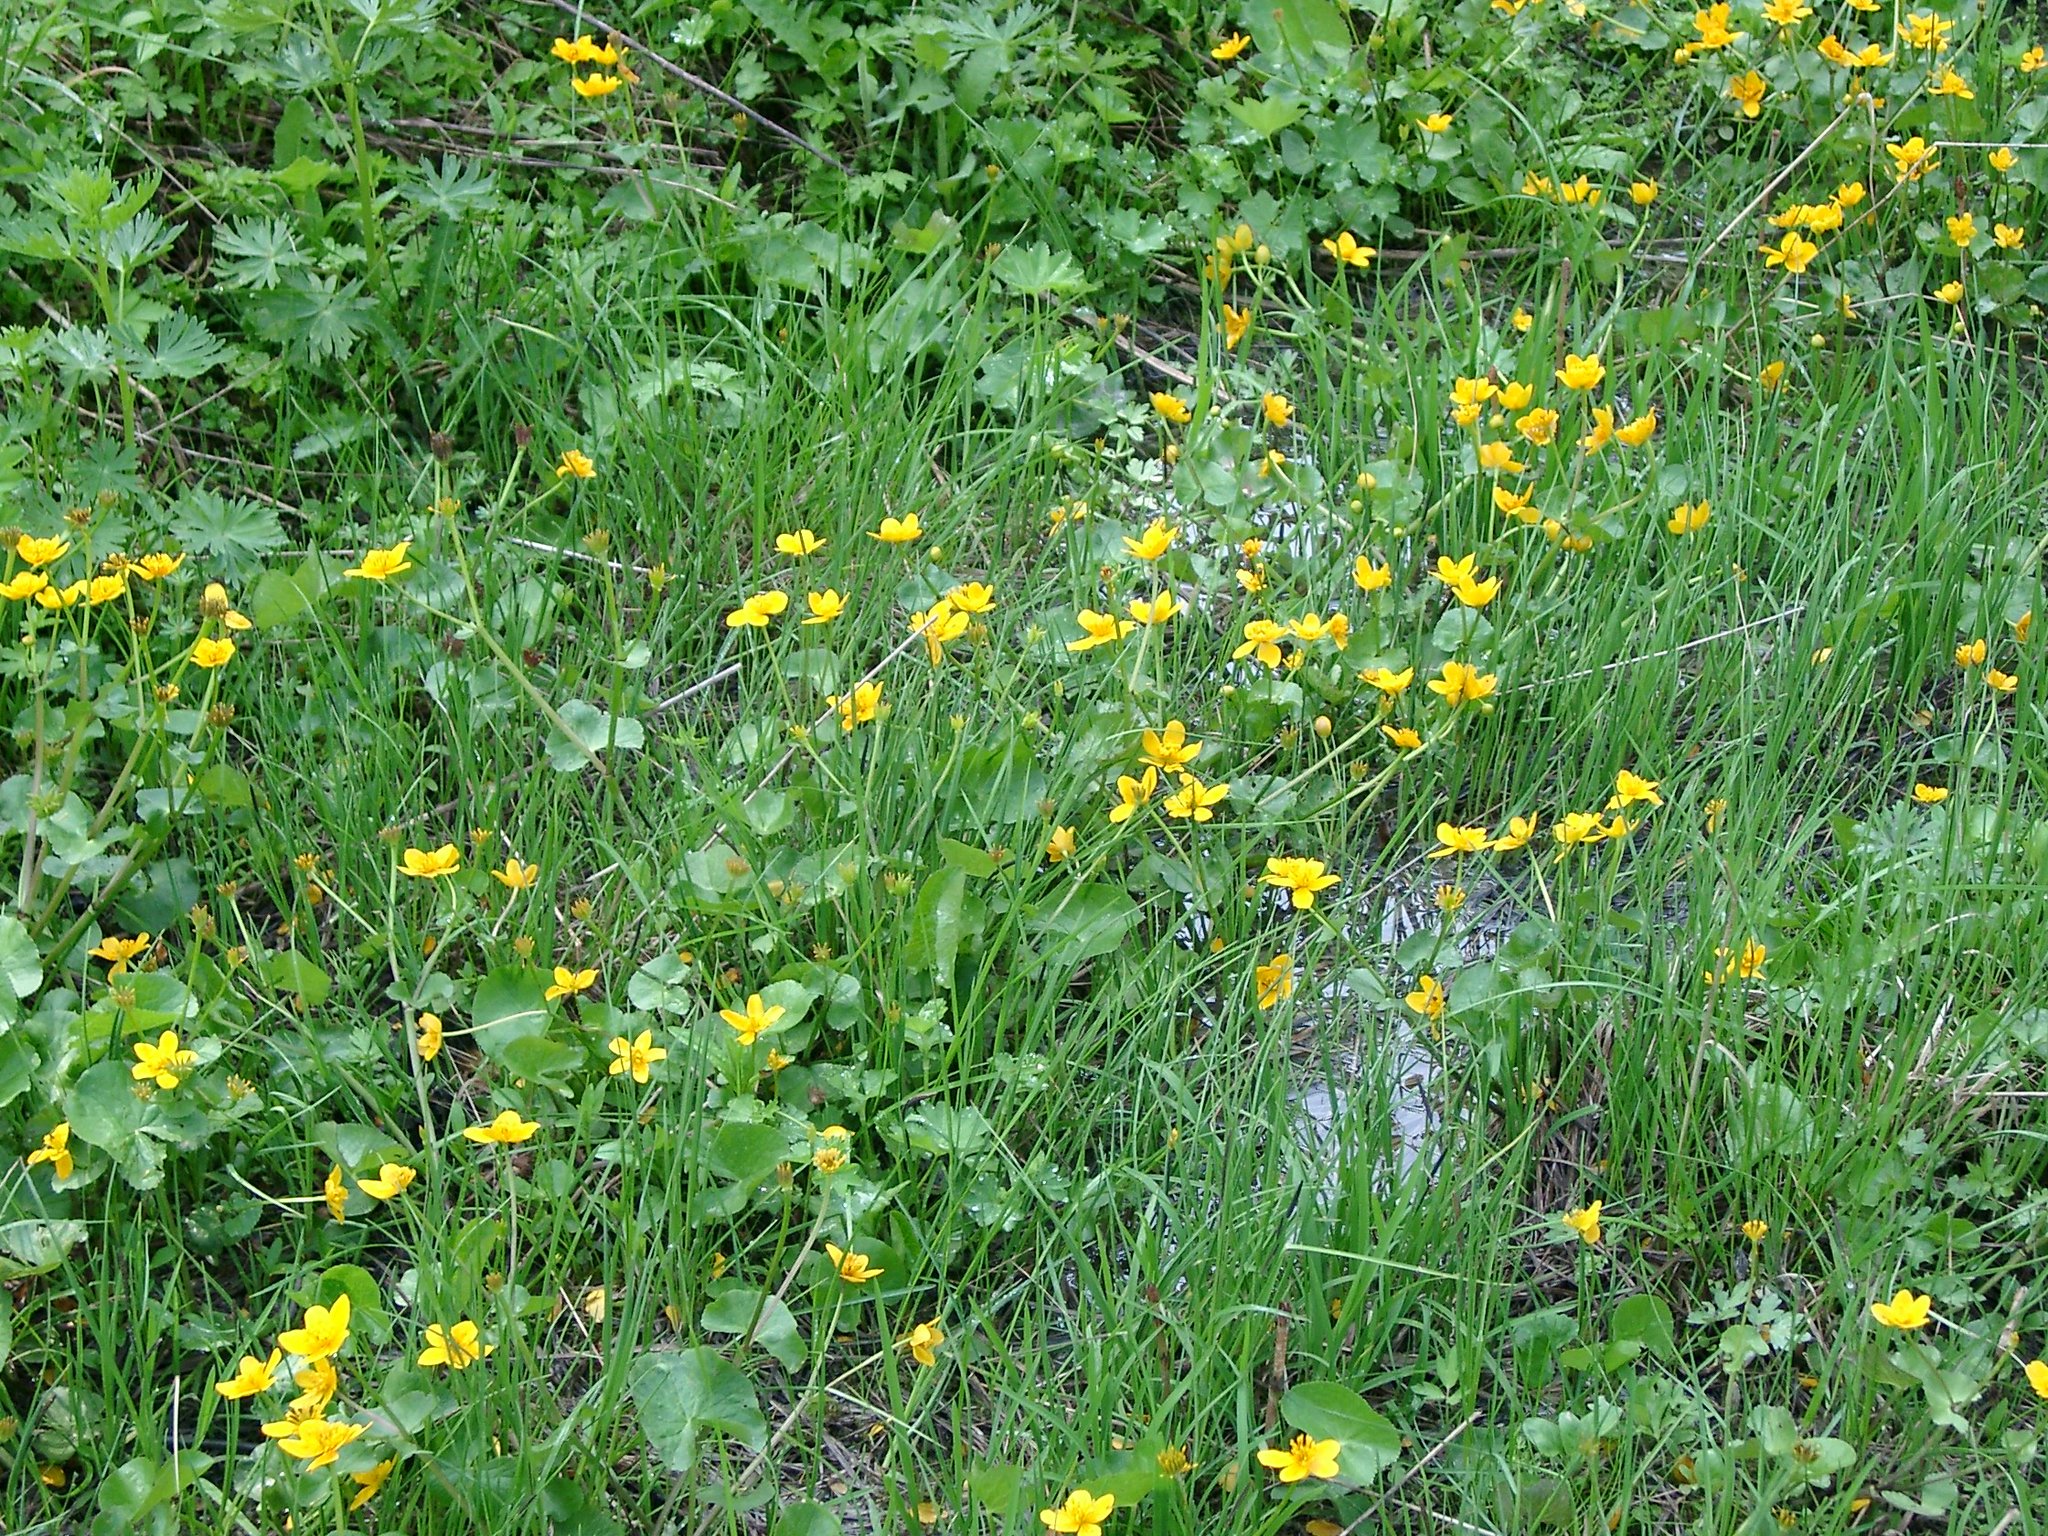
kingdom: Plantae
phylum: Tracheophyta
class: Magnoliopsida
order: Ranunculales
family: Ranunculaceae
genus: Caltha
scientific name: Caltha palustris
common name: Marsh marigold
